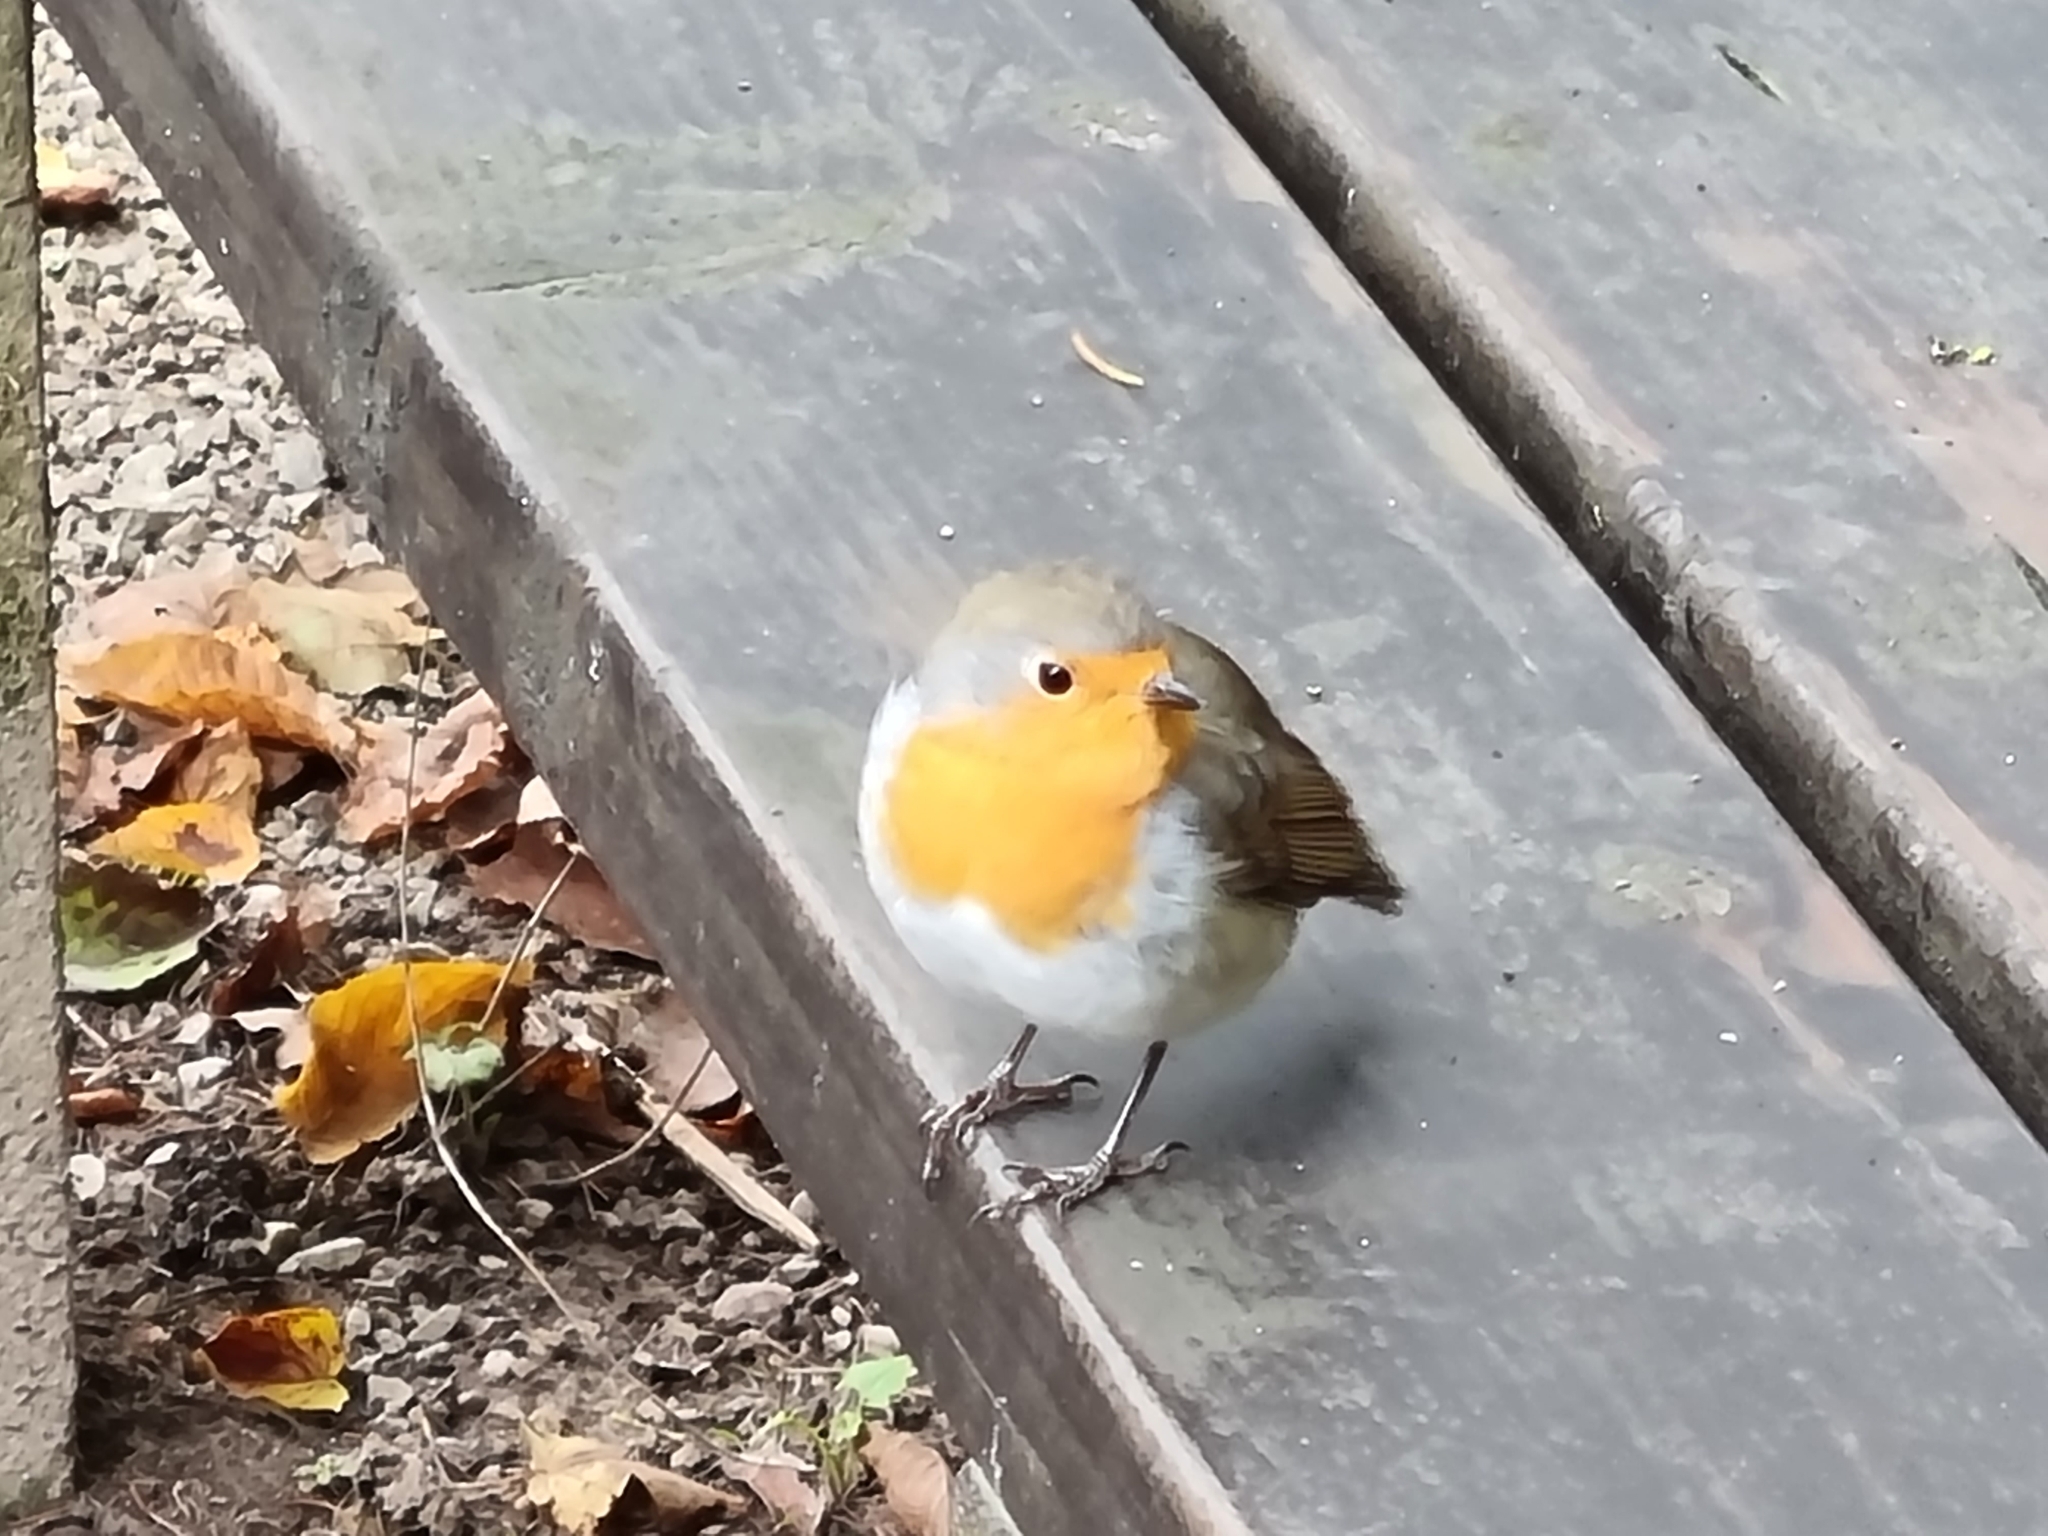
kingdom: Animalia
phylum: Chordata
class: Aves
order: Passeriformes
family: Muscicapidae
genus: Erithacus
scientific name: Erithacus rubecula
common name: European robin
